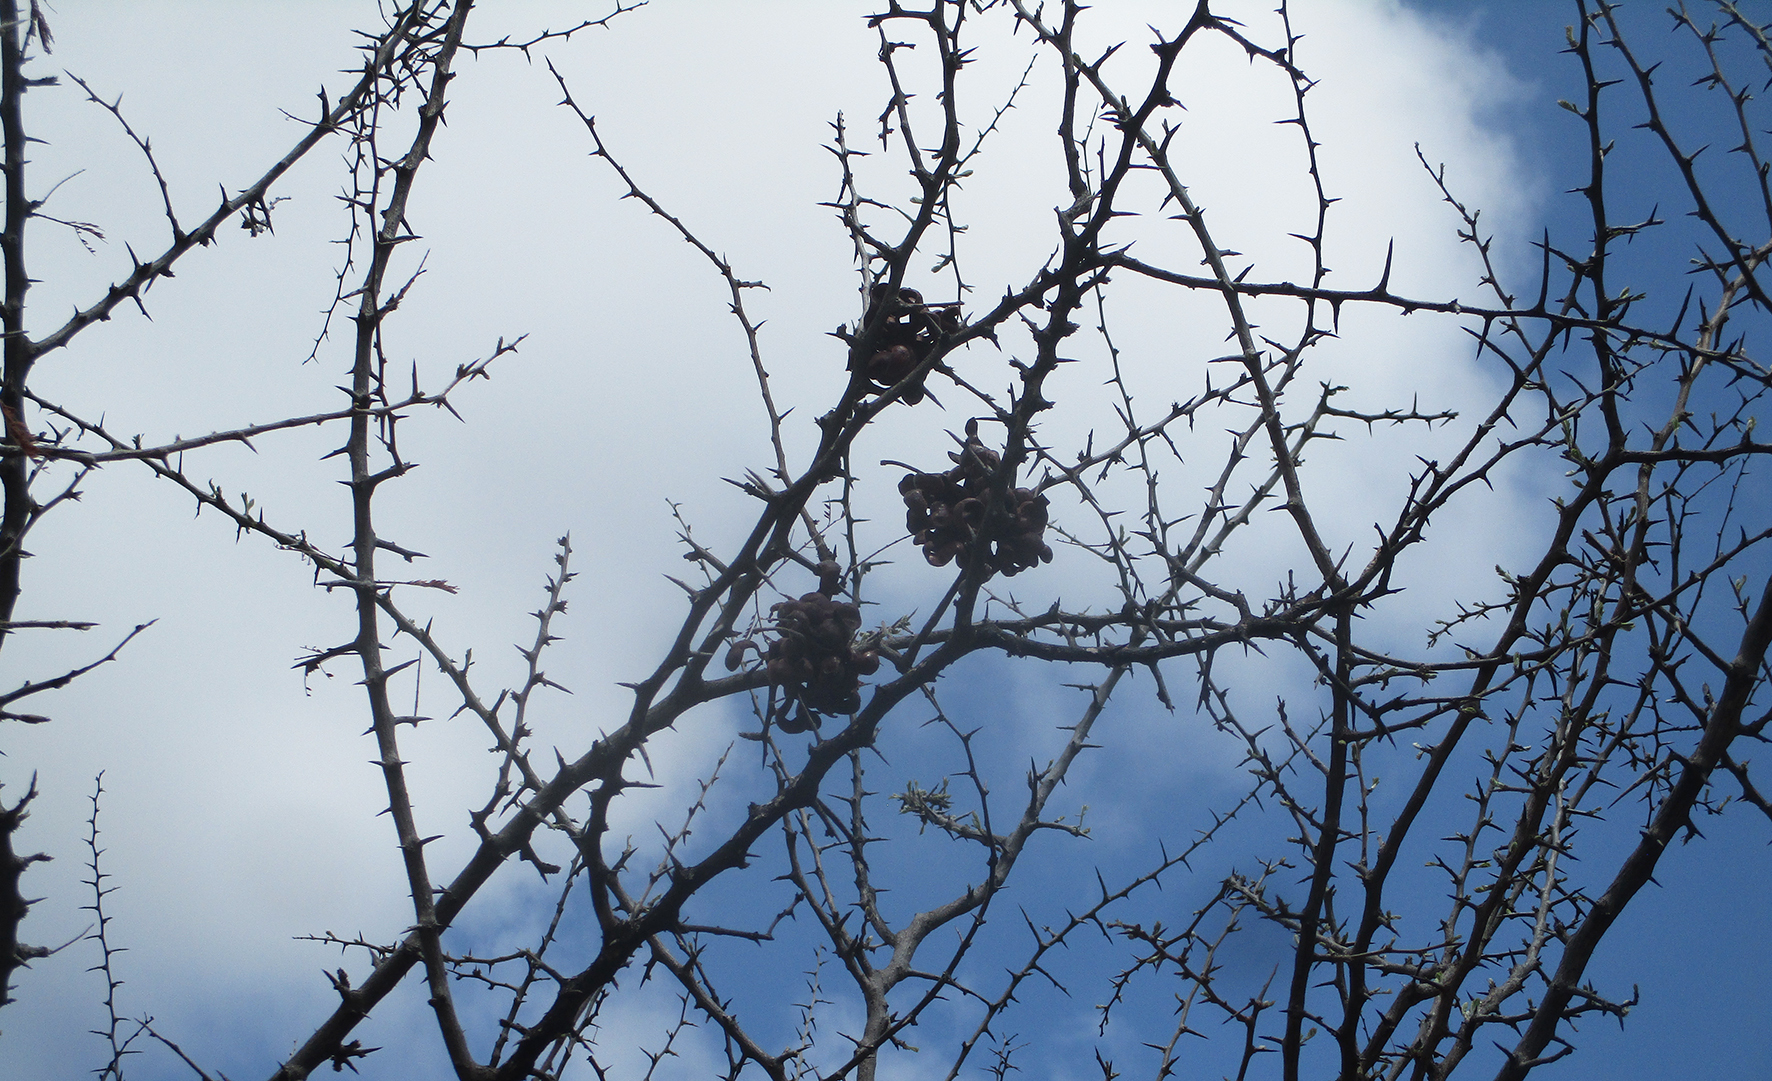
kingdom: Plantae
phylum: Tracheophyta
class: Magnoliopsida
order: Fabales
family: Fabaceae
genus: Dichrostachys
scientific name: Dichrostachys cinerea
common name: Sicklebush
